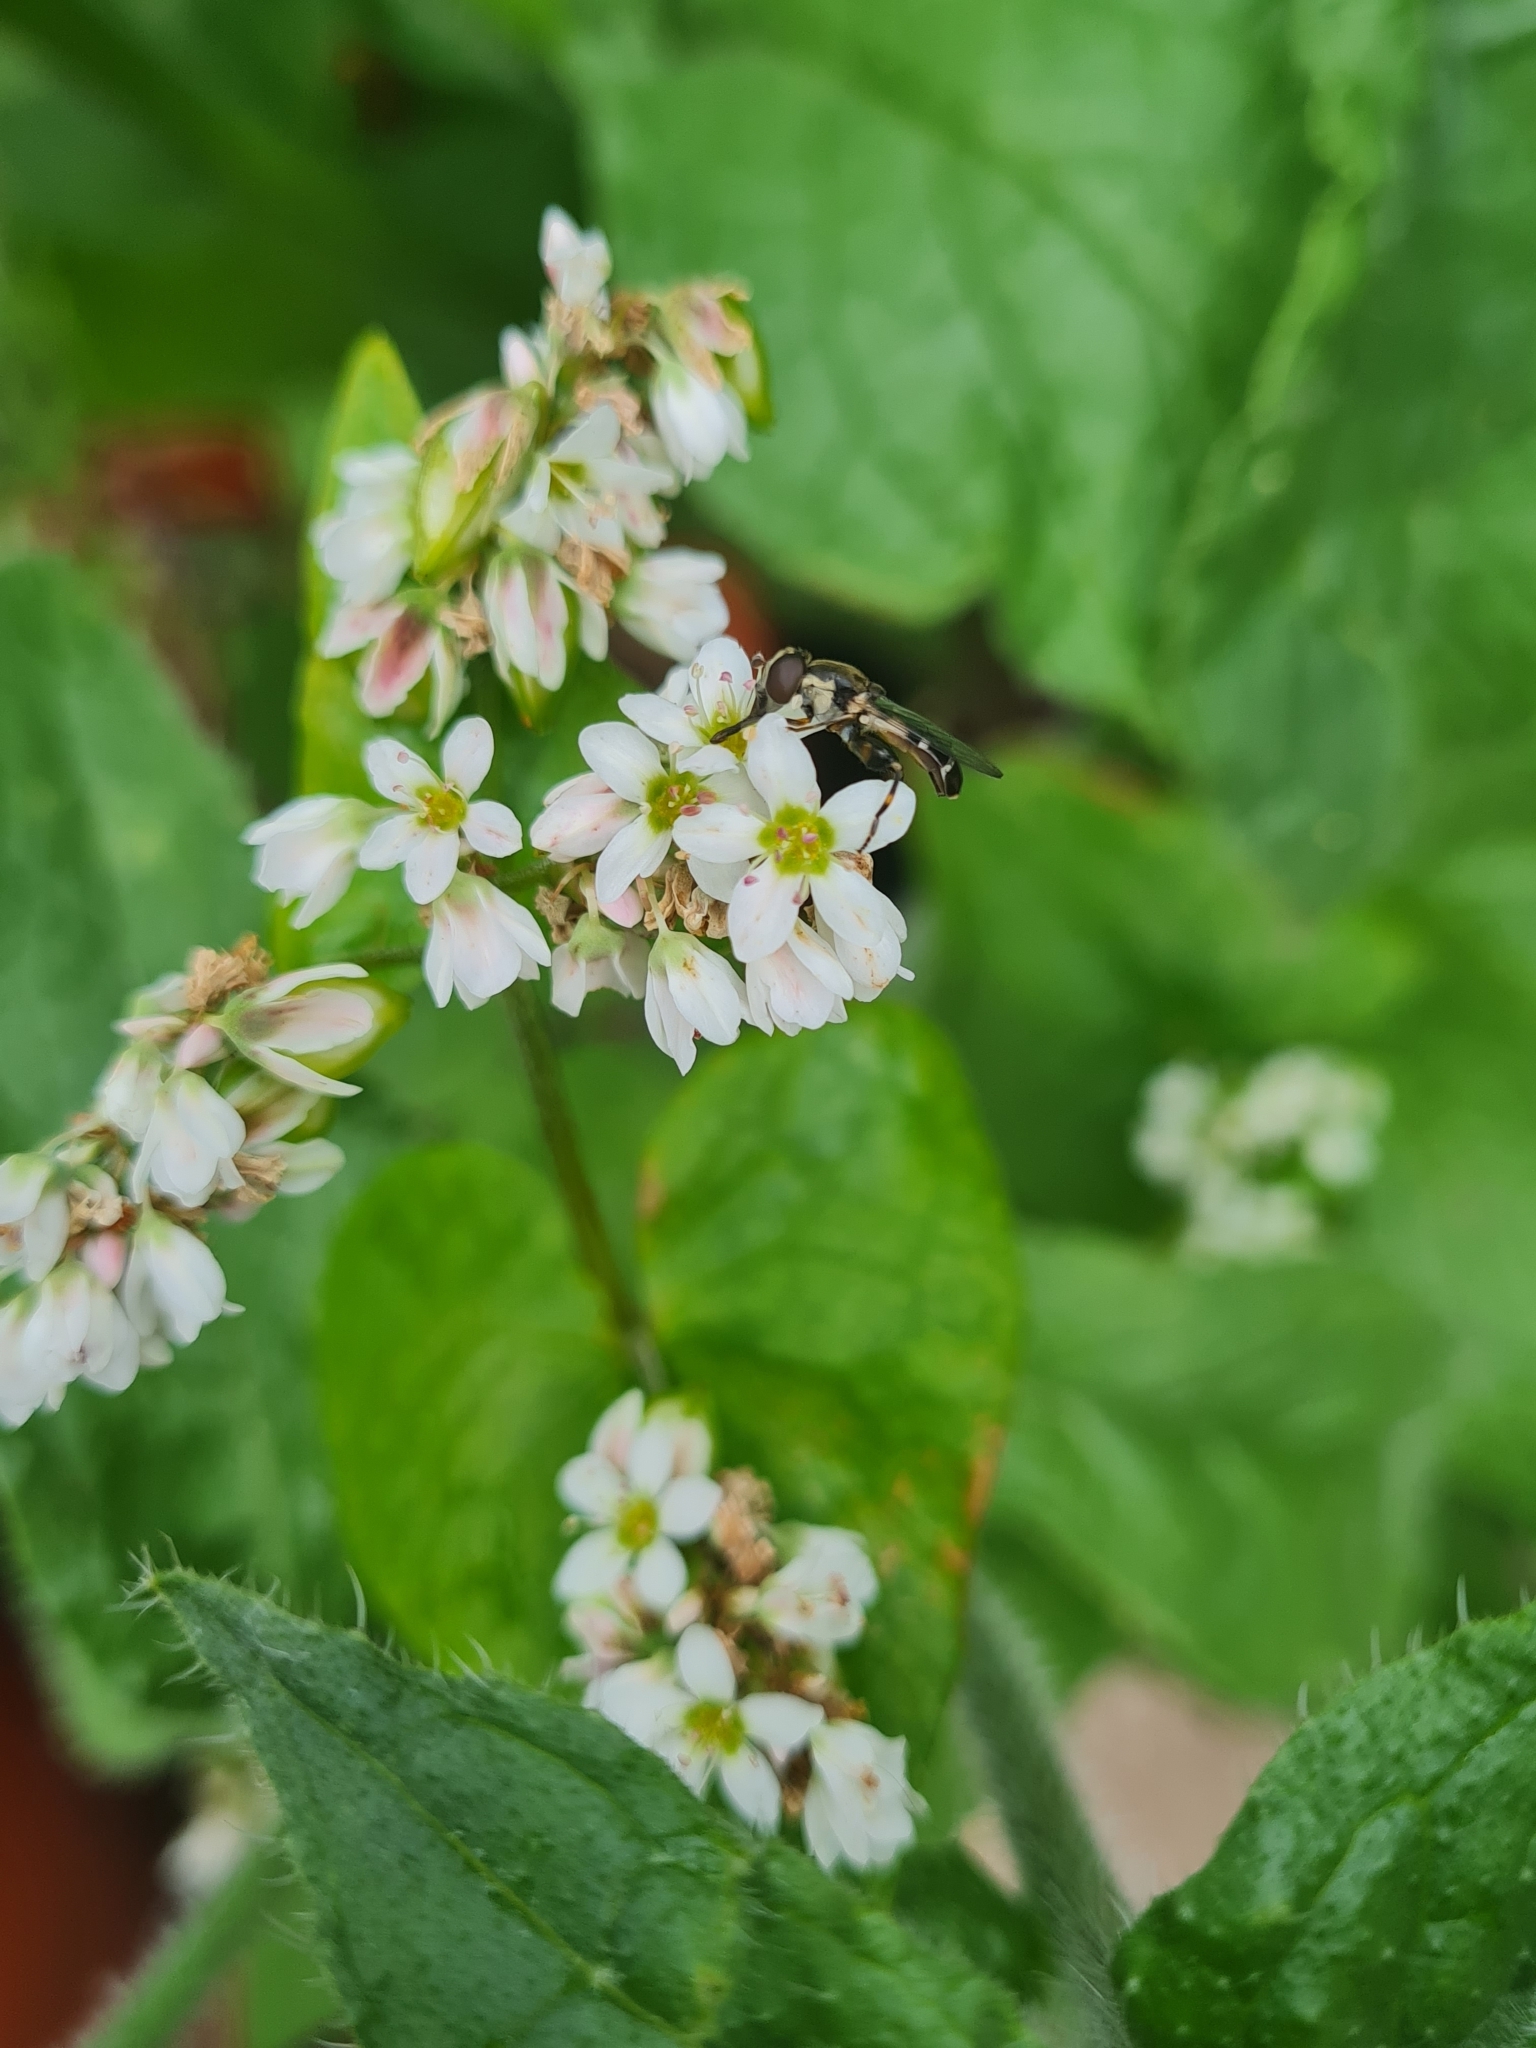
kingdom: Animalia
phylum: Arthropoda
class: Insecta
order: Diptera
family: Syrphidae
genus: Syritta
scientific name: Syritta pipiens
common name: Hover fly
